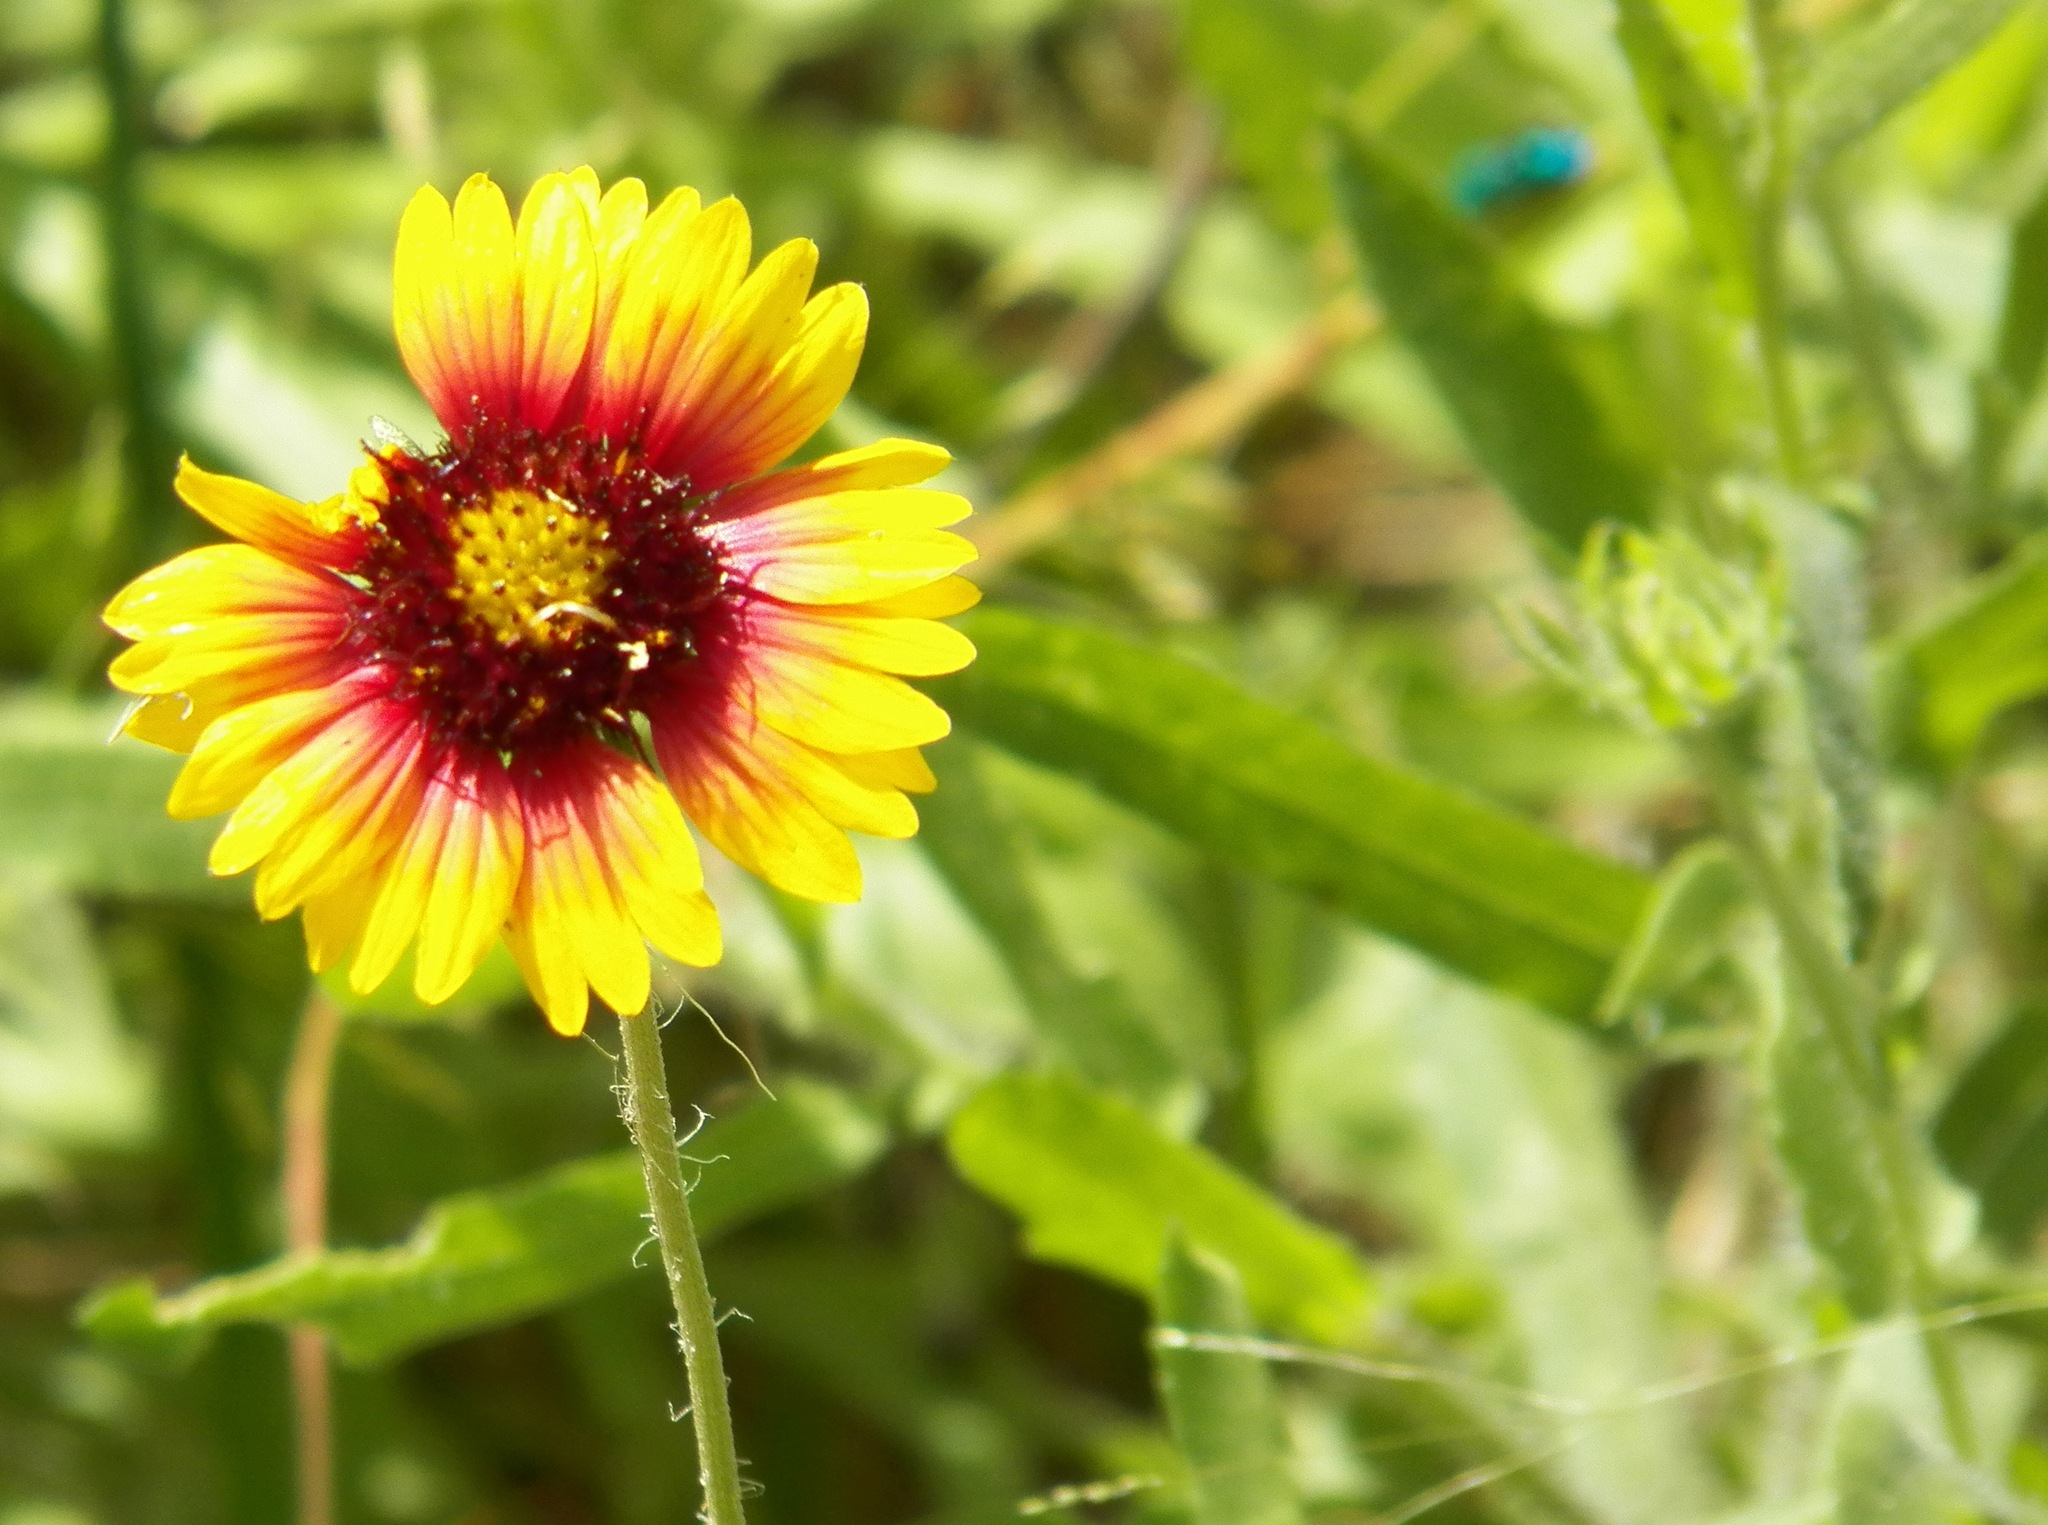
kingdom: Plantae
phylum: Tracheophyta
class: Magnoliopsida
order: Asterales
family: Asteraceae
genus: Gaillardia
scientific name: Gaillardia pulchella
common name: Firewheel
